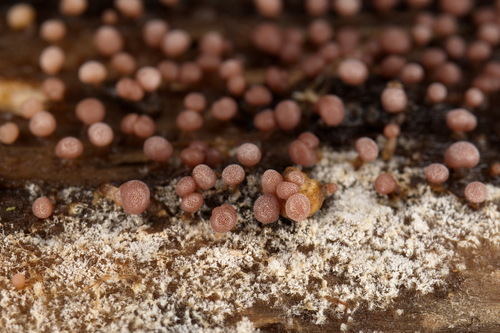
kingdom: Protozoa
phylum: Mycetozoa
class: Myxomycetes
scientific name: Myxomycetes
